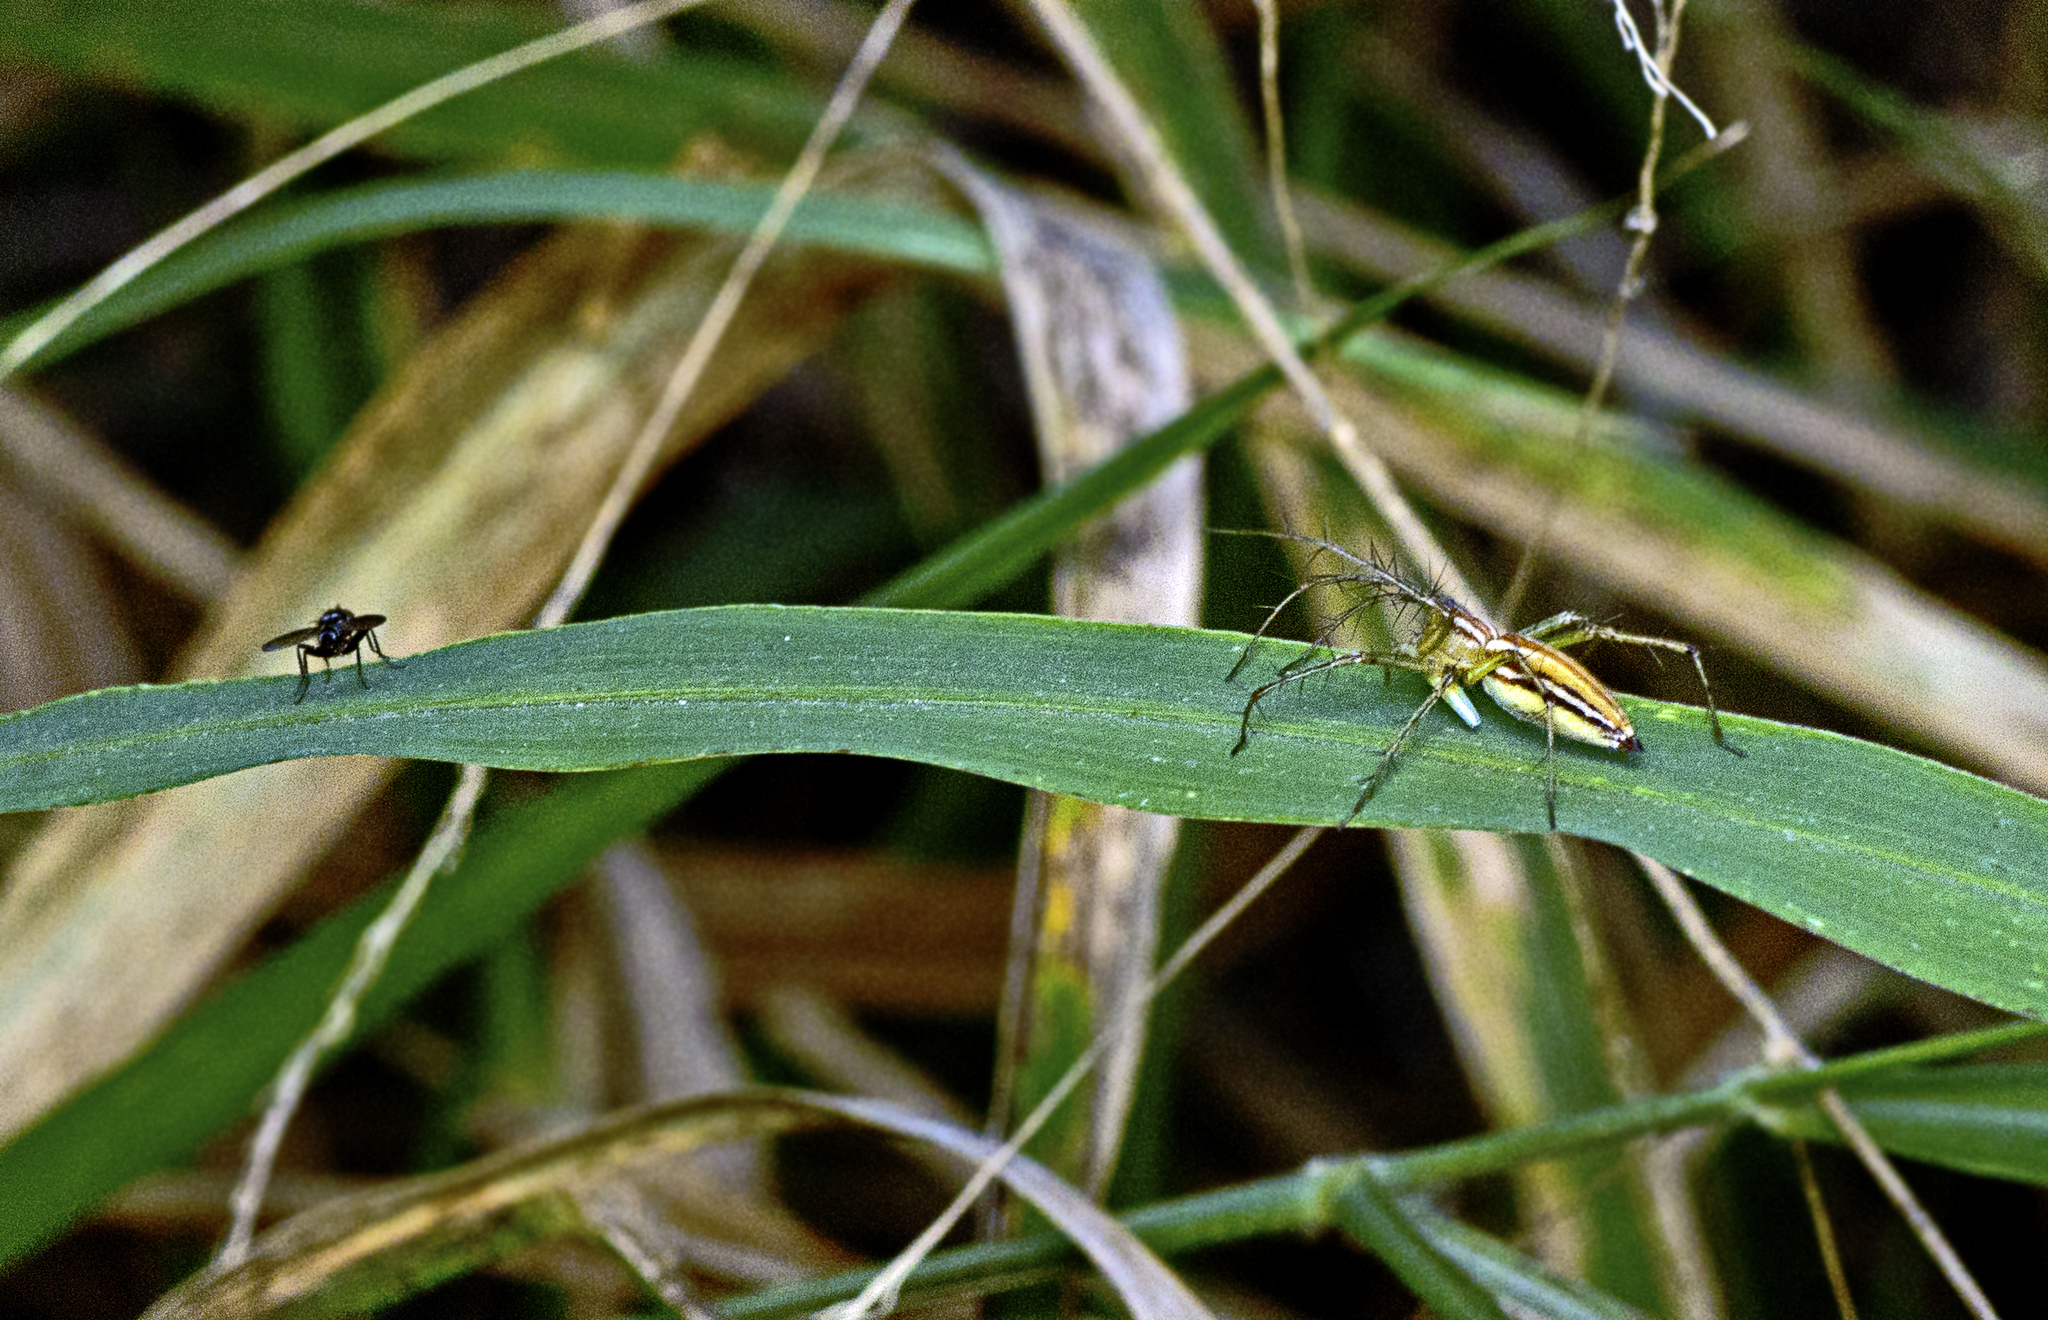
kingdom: Animalia
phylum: Arthropoda
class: Arachnida
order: Araneae
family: Oxyopidae
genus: Oxyopes
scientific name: Oxyopes macilentus
